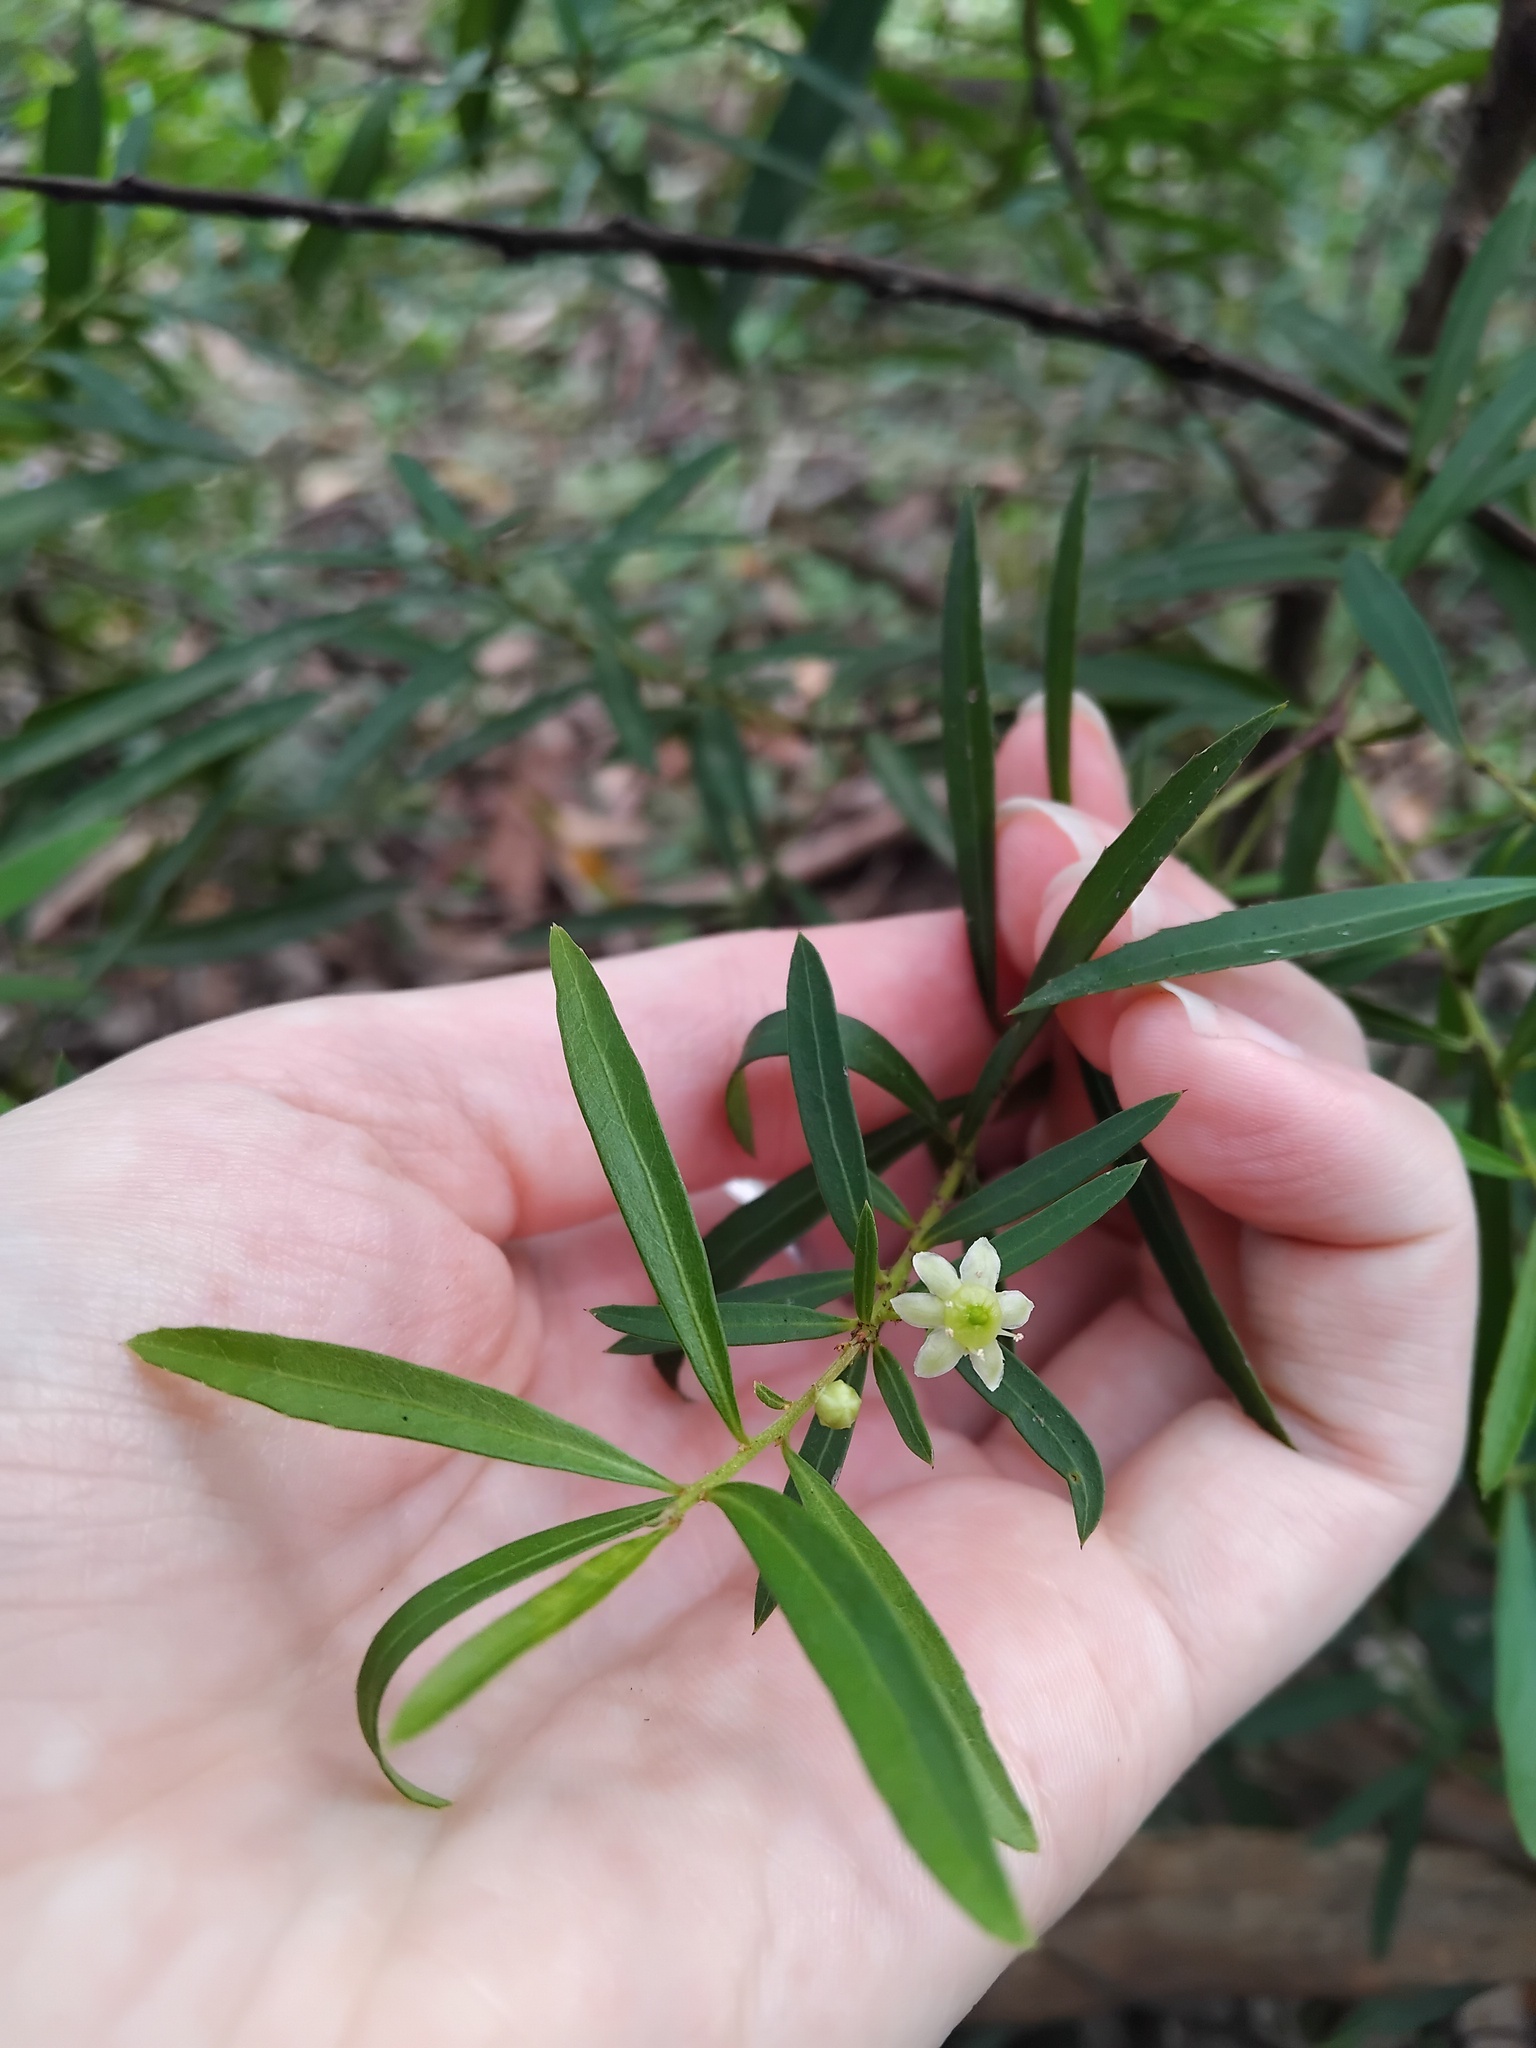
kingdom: Plantae
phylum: Tracheophyta
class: Magnoliopsida
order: Celastrales
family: Celastraceae
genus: Denhamia
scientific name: Denhamia silvestris
